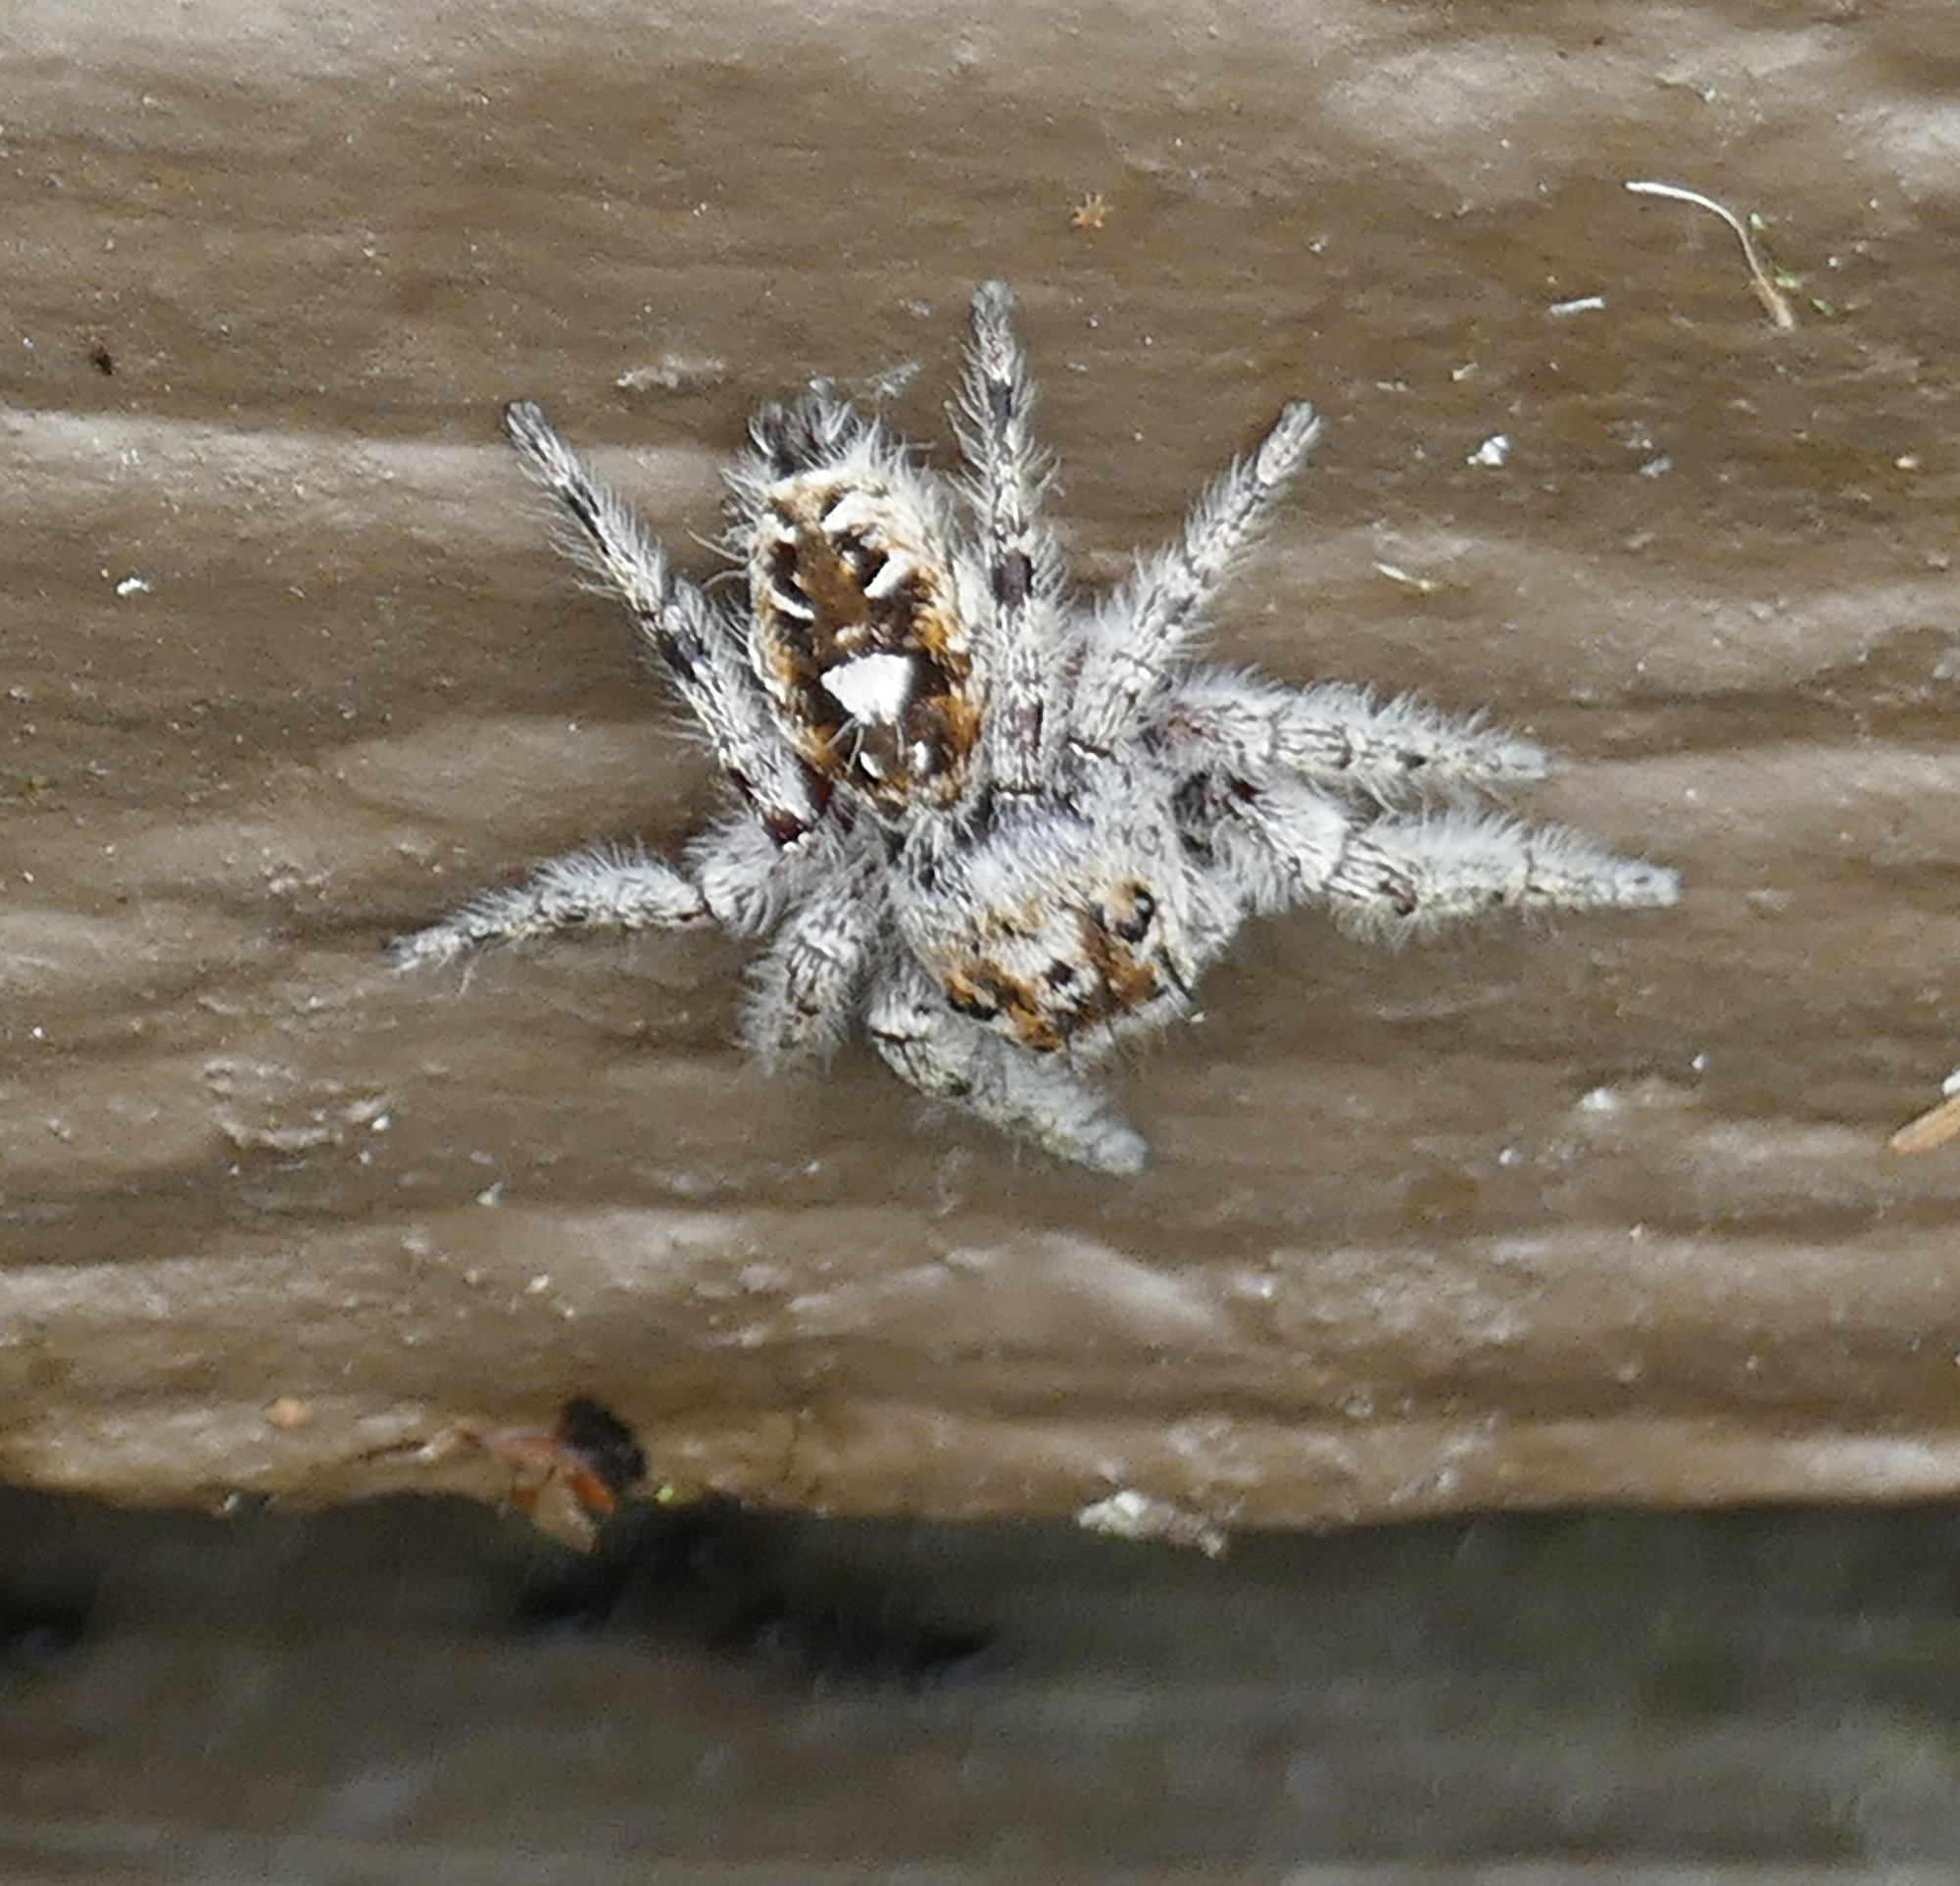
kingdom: Animalia
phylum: Arthropoda
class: Arachnida
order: Araneae
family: Salticidae
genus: Phidippus
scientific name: Phidippus putnami
